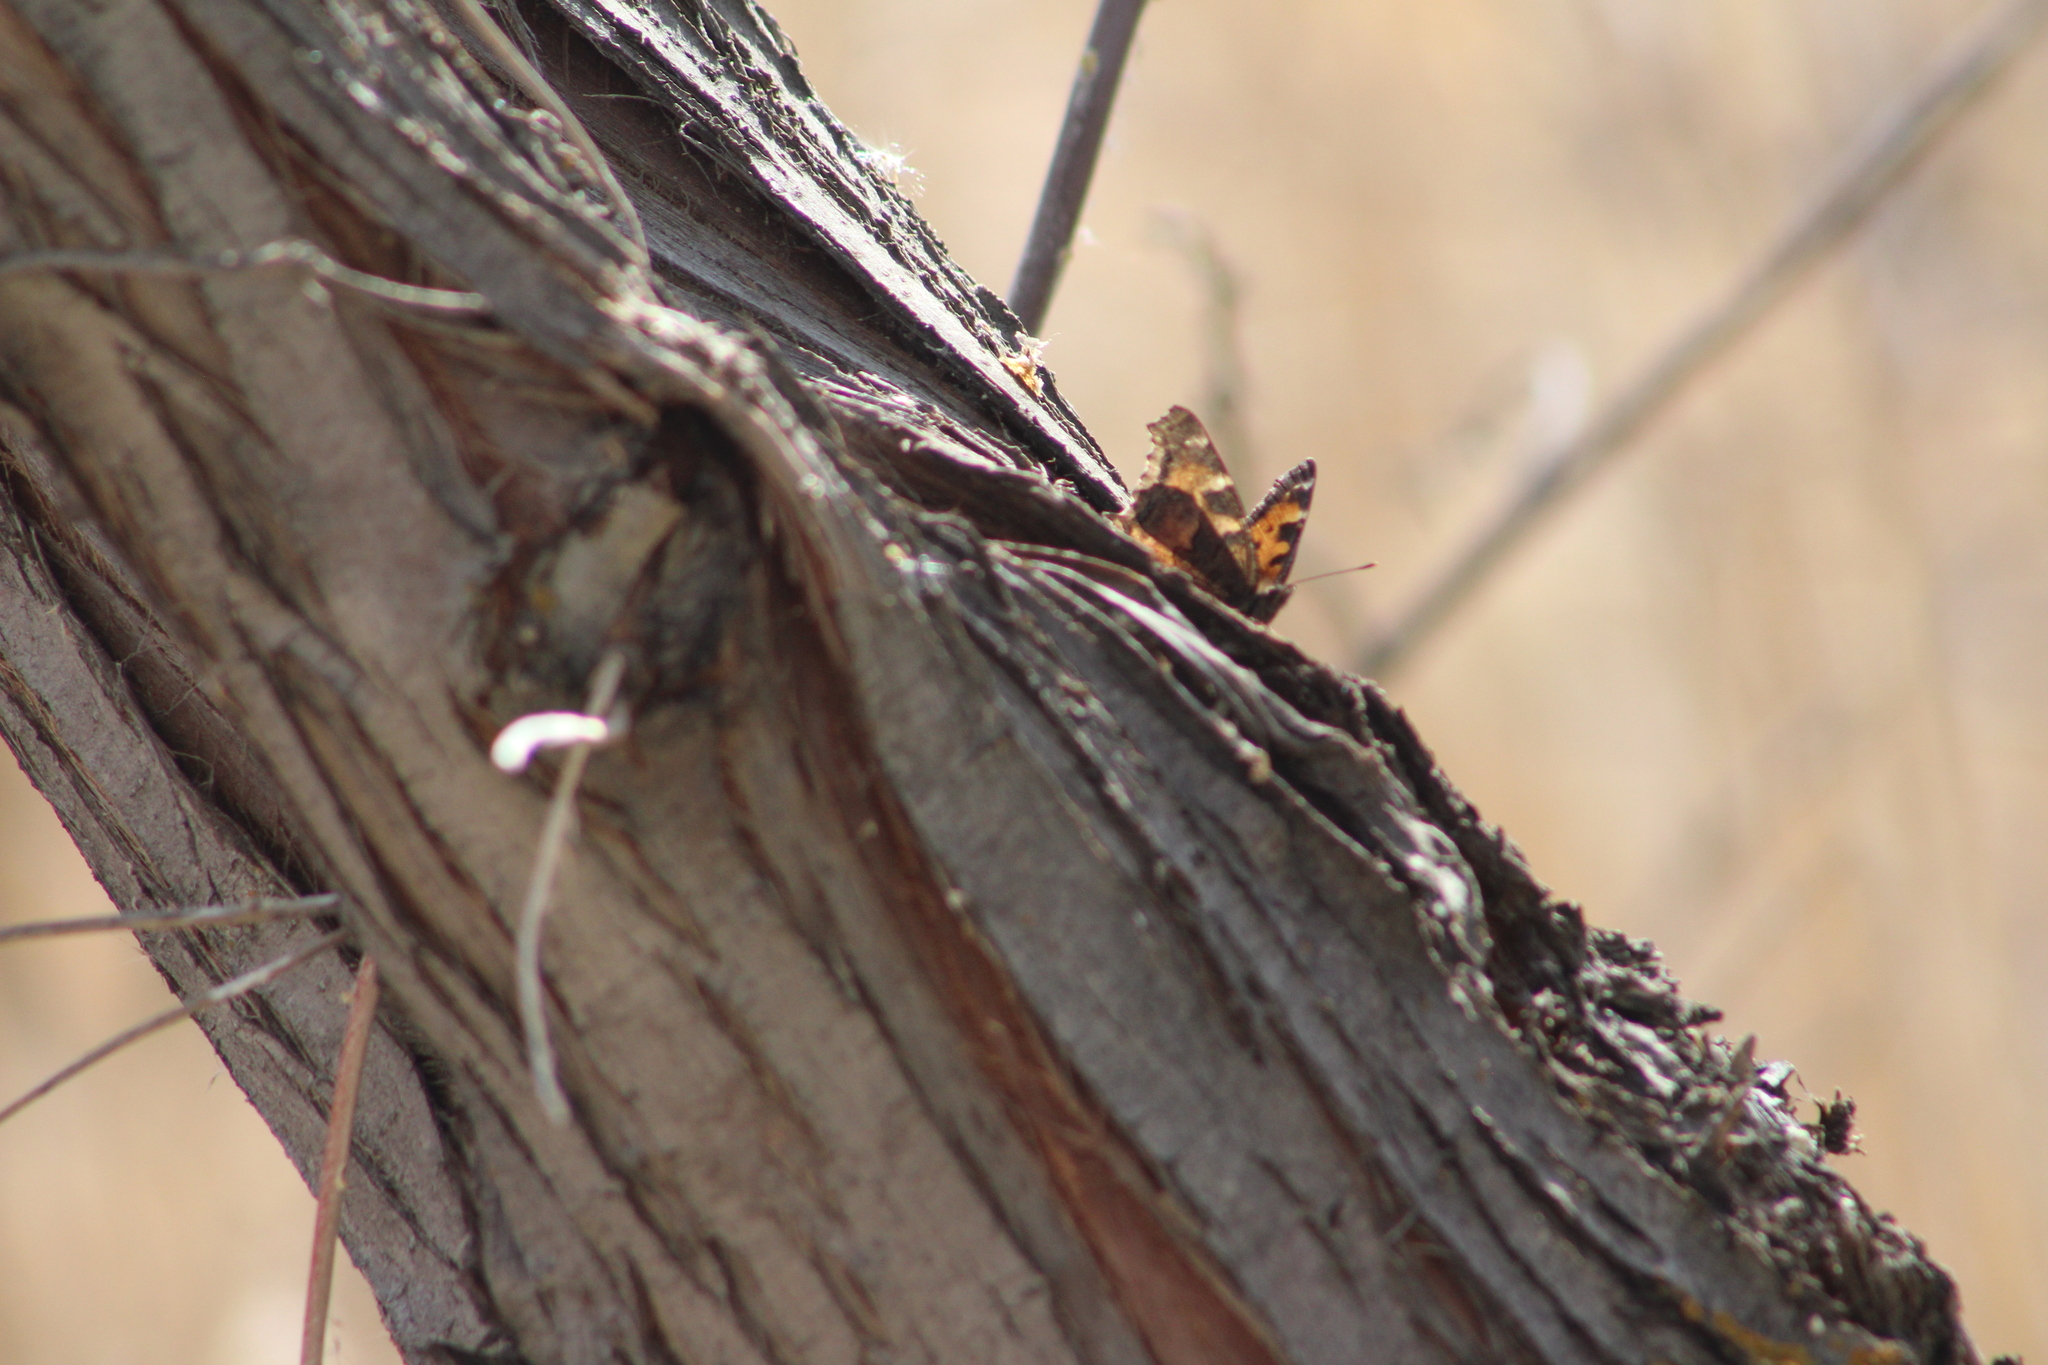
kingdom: Animalia
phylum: Arthropoda
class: Insecta
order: Lepidoptera
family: Nymphalidae
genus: Nymphalis
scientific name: Nymphalis californica
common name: California tortoiseshell
